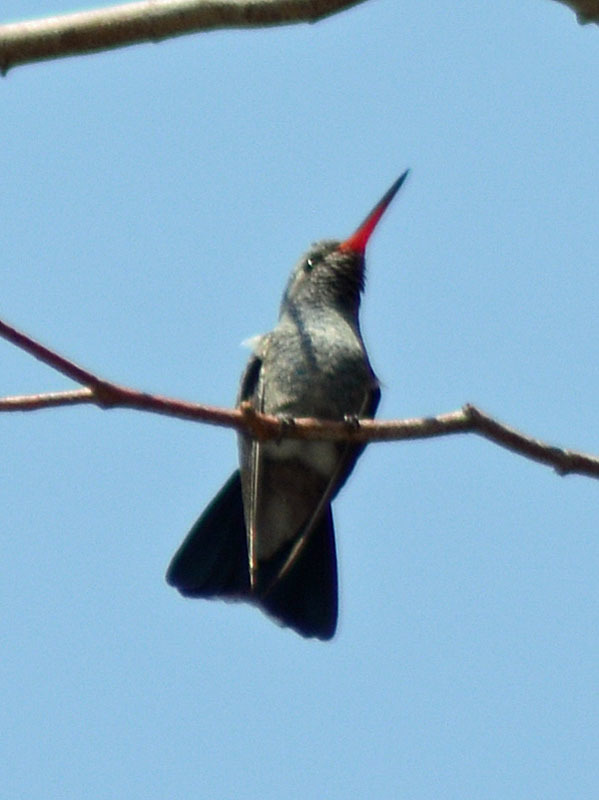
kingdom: Animalia
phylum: Chordata
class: Aves
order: Apodiformes
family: Trochilidae
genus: Cynanthus
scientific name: Cynanthus latirostris
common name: Broad-billed hummingbird
